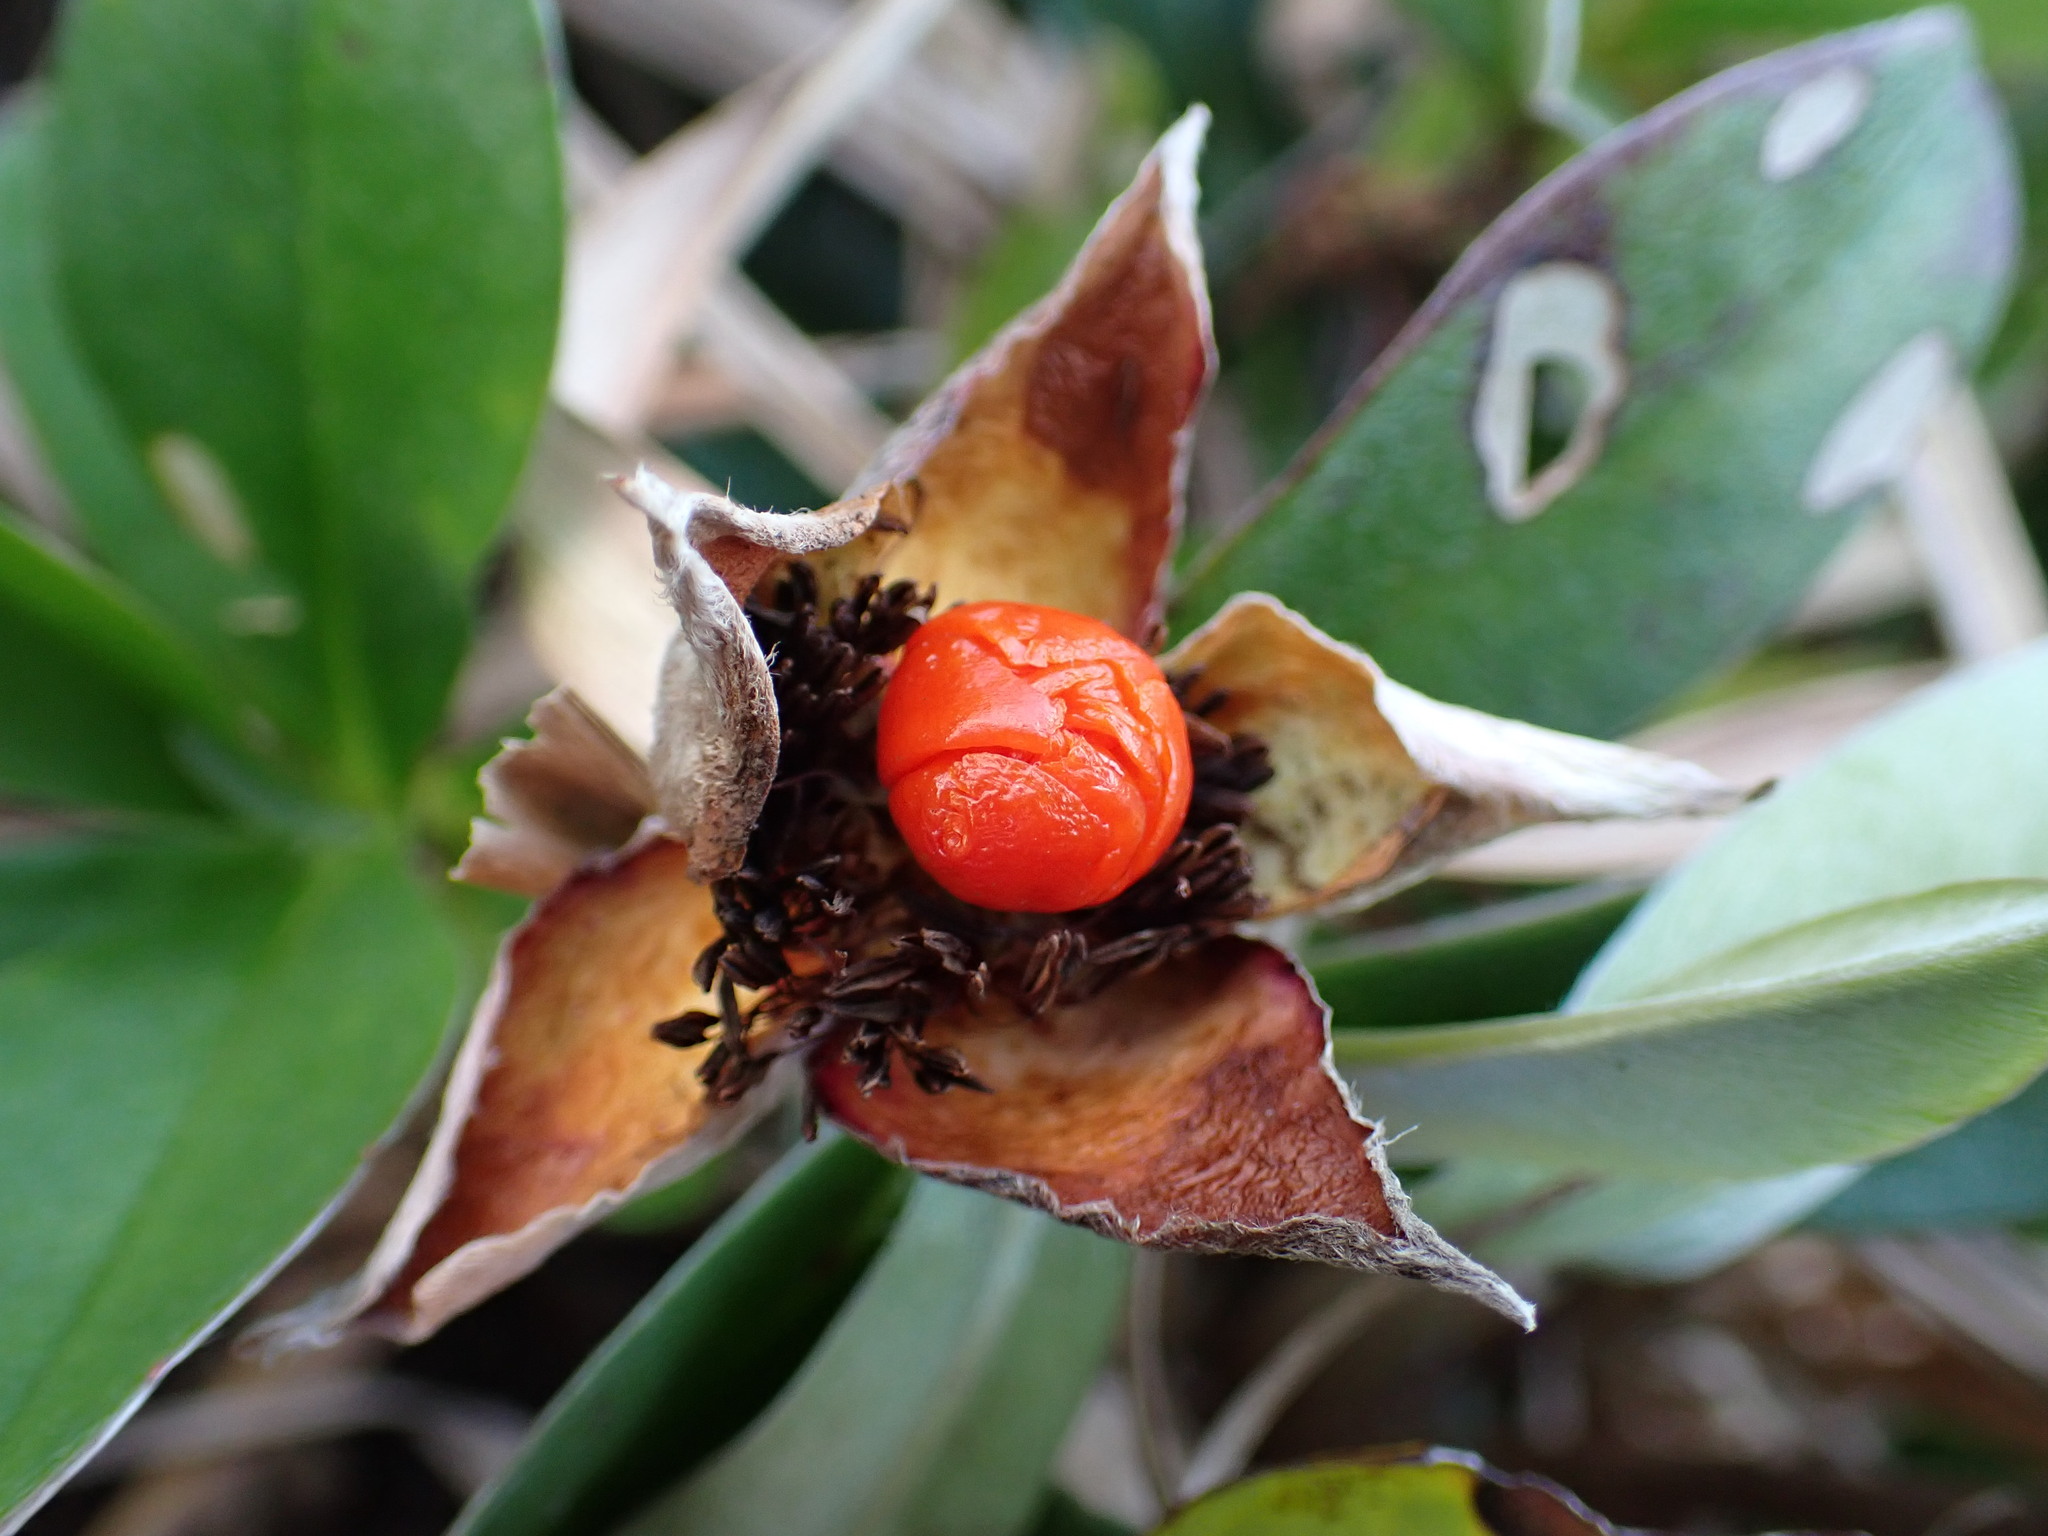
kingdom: Plantae
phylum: Tracheophyta
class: Magnoliopsida
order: Dilleniales
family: Dilleniaceae
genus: Hibbertia
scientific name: Hibbertia scandens
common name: Climbing guinea-flower
